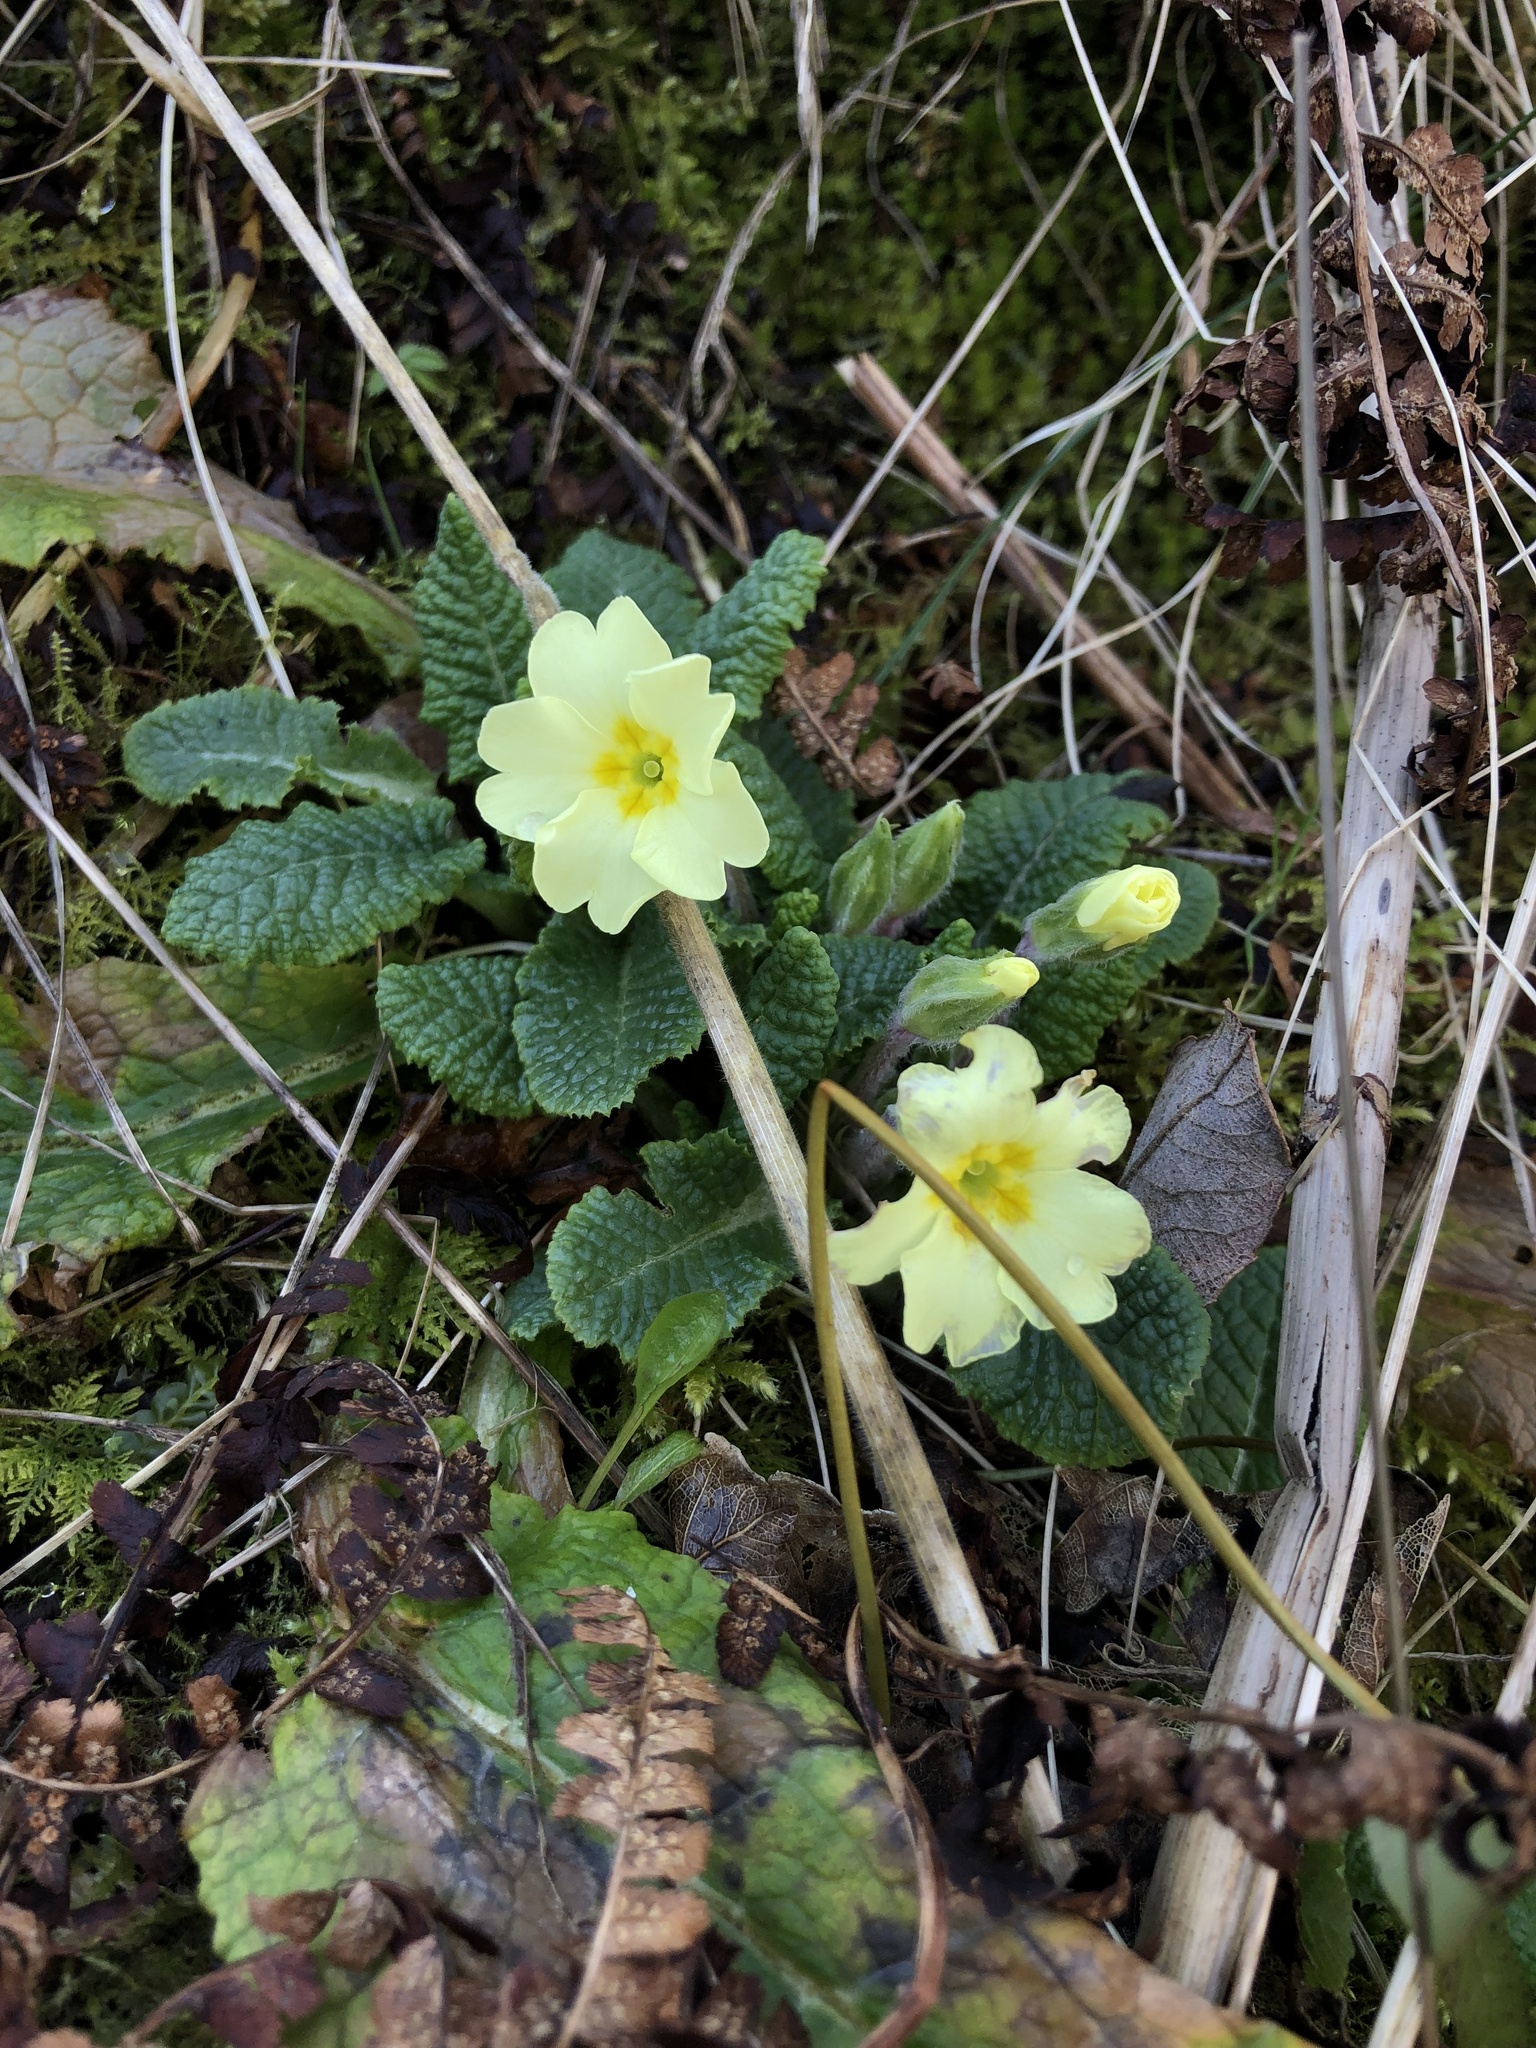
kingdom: Plantae
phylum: Tracheophyta
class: Magnoliopsida
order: Ericales
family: Primulaceae
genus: Primula
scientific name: Primula vulgaris
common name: Primrose
